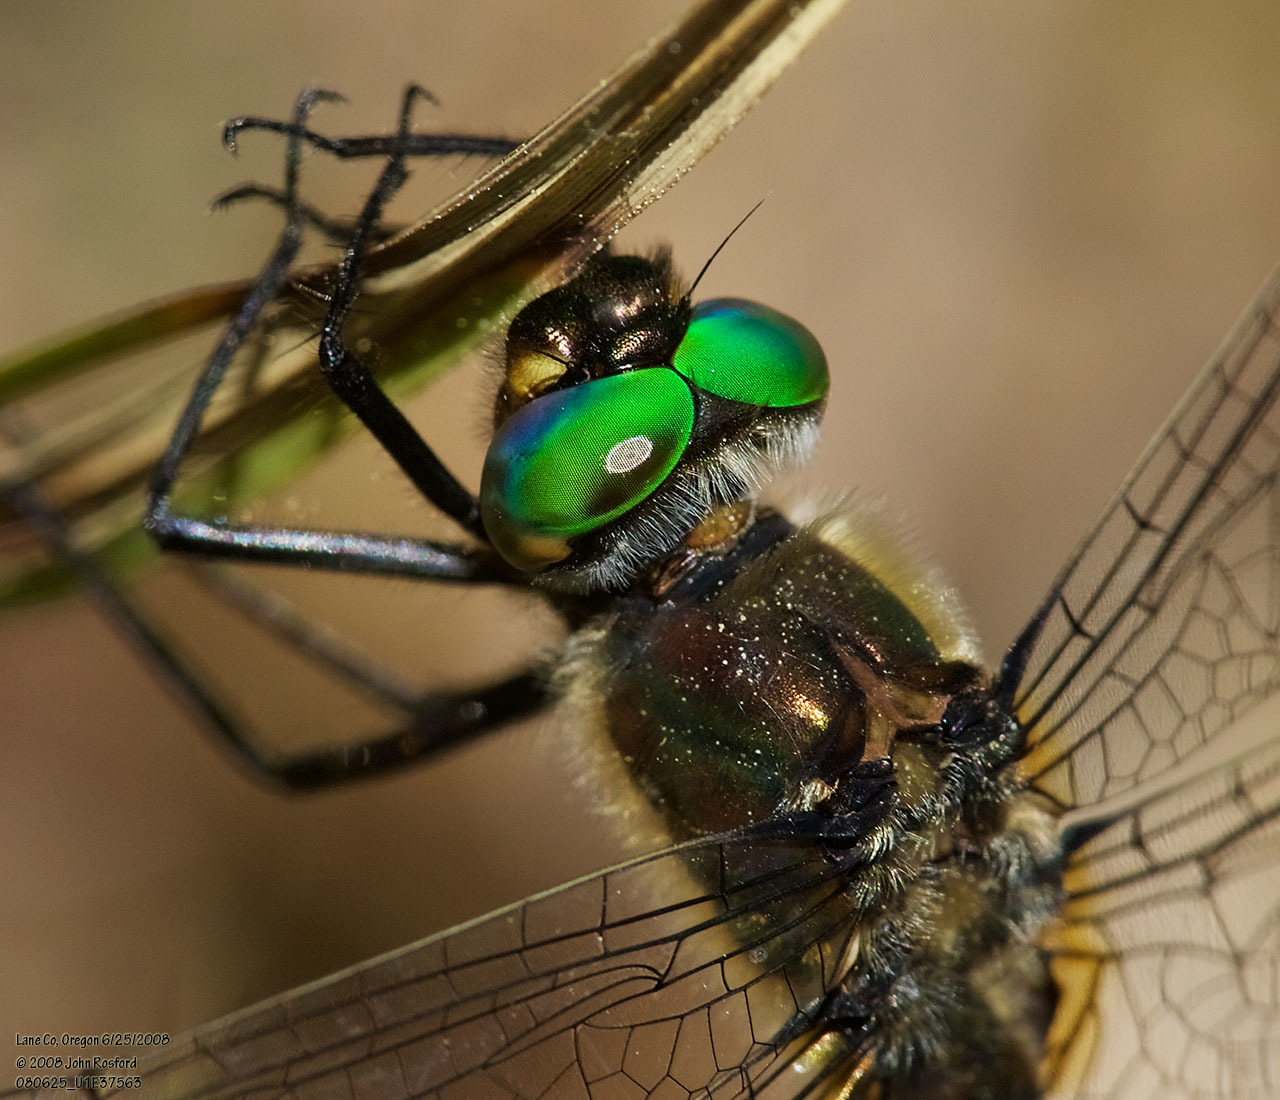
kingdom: Animalia
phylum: Arthropoda
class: Insecta
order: Odonata
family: Corduliidae
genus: Cordulia
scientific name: Cordulia shurtleffii
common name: American emerald
